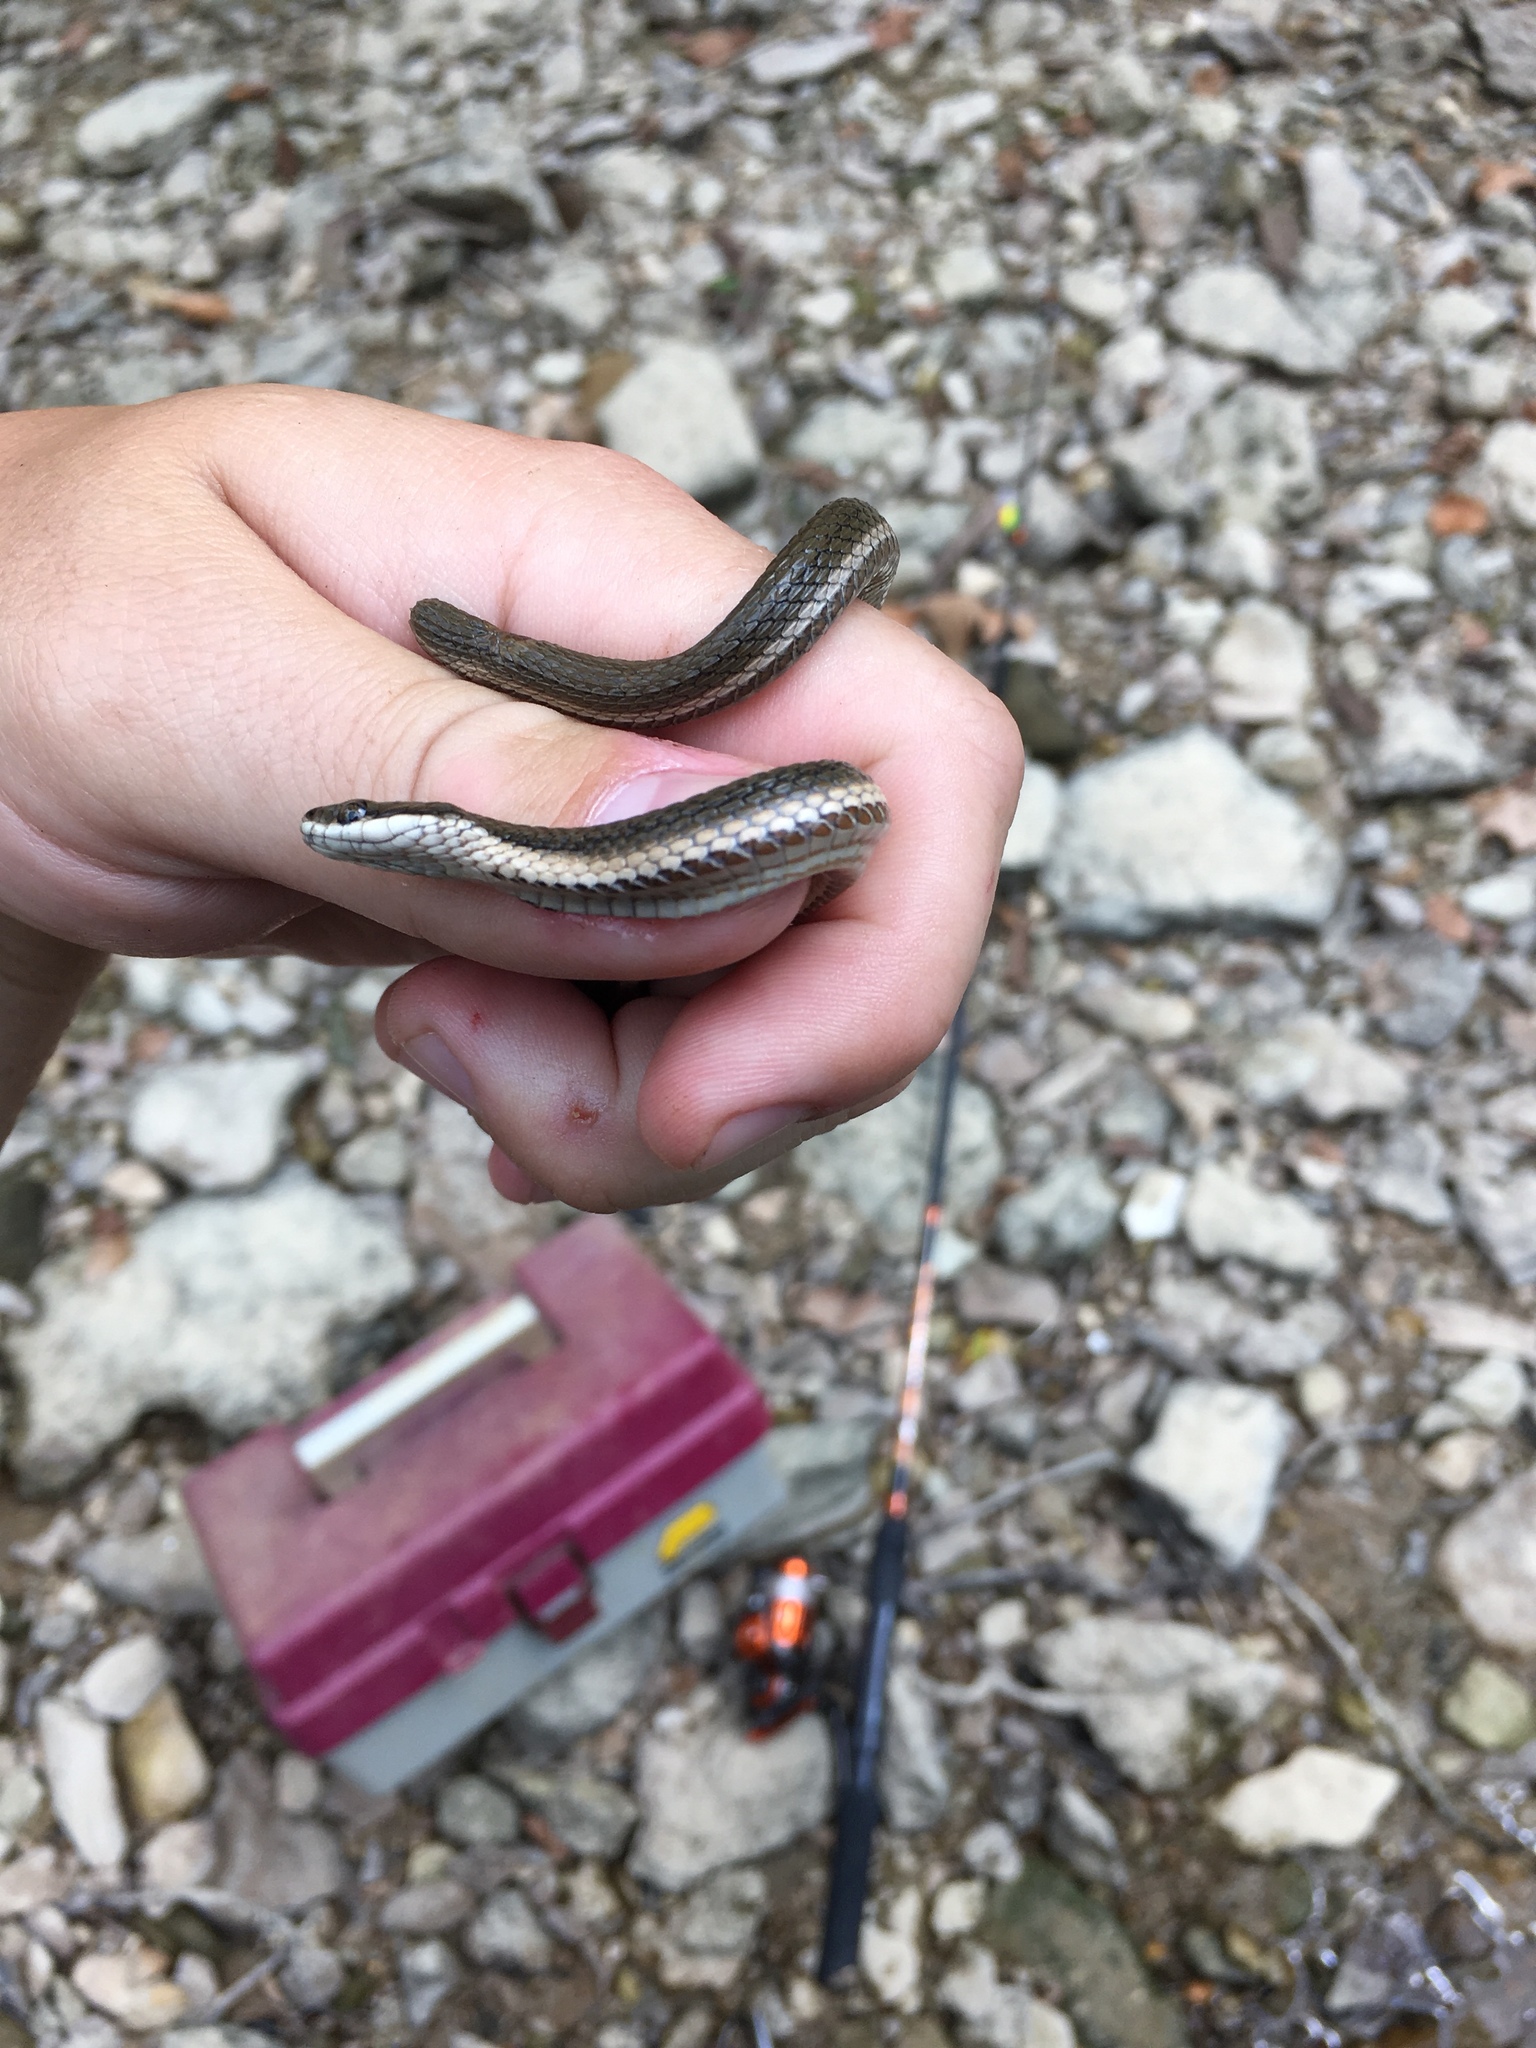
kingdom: Animalia
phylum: Chordata
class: Squamata
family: Colubridae
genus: Regina
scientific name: Regina septemvittata
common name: Queen snake
